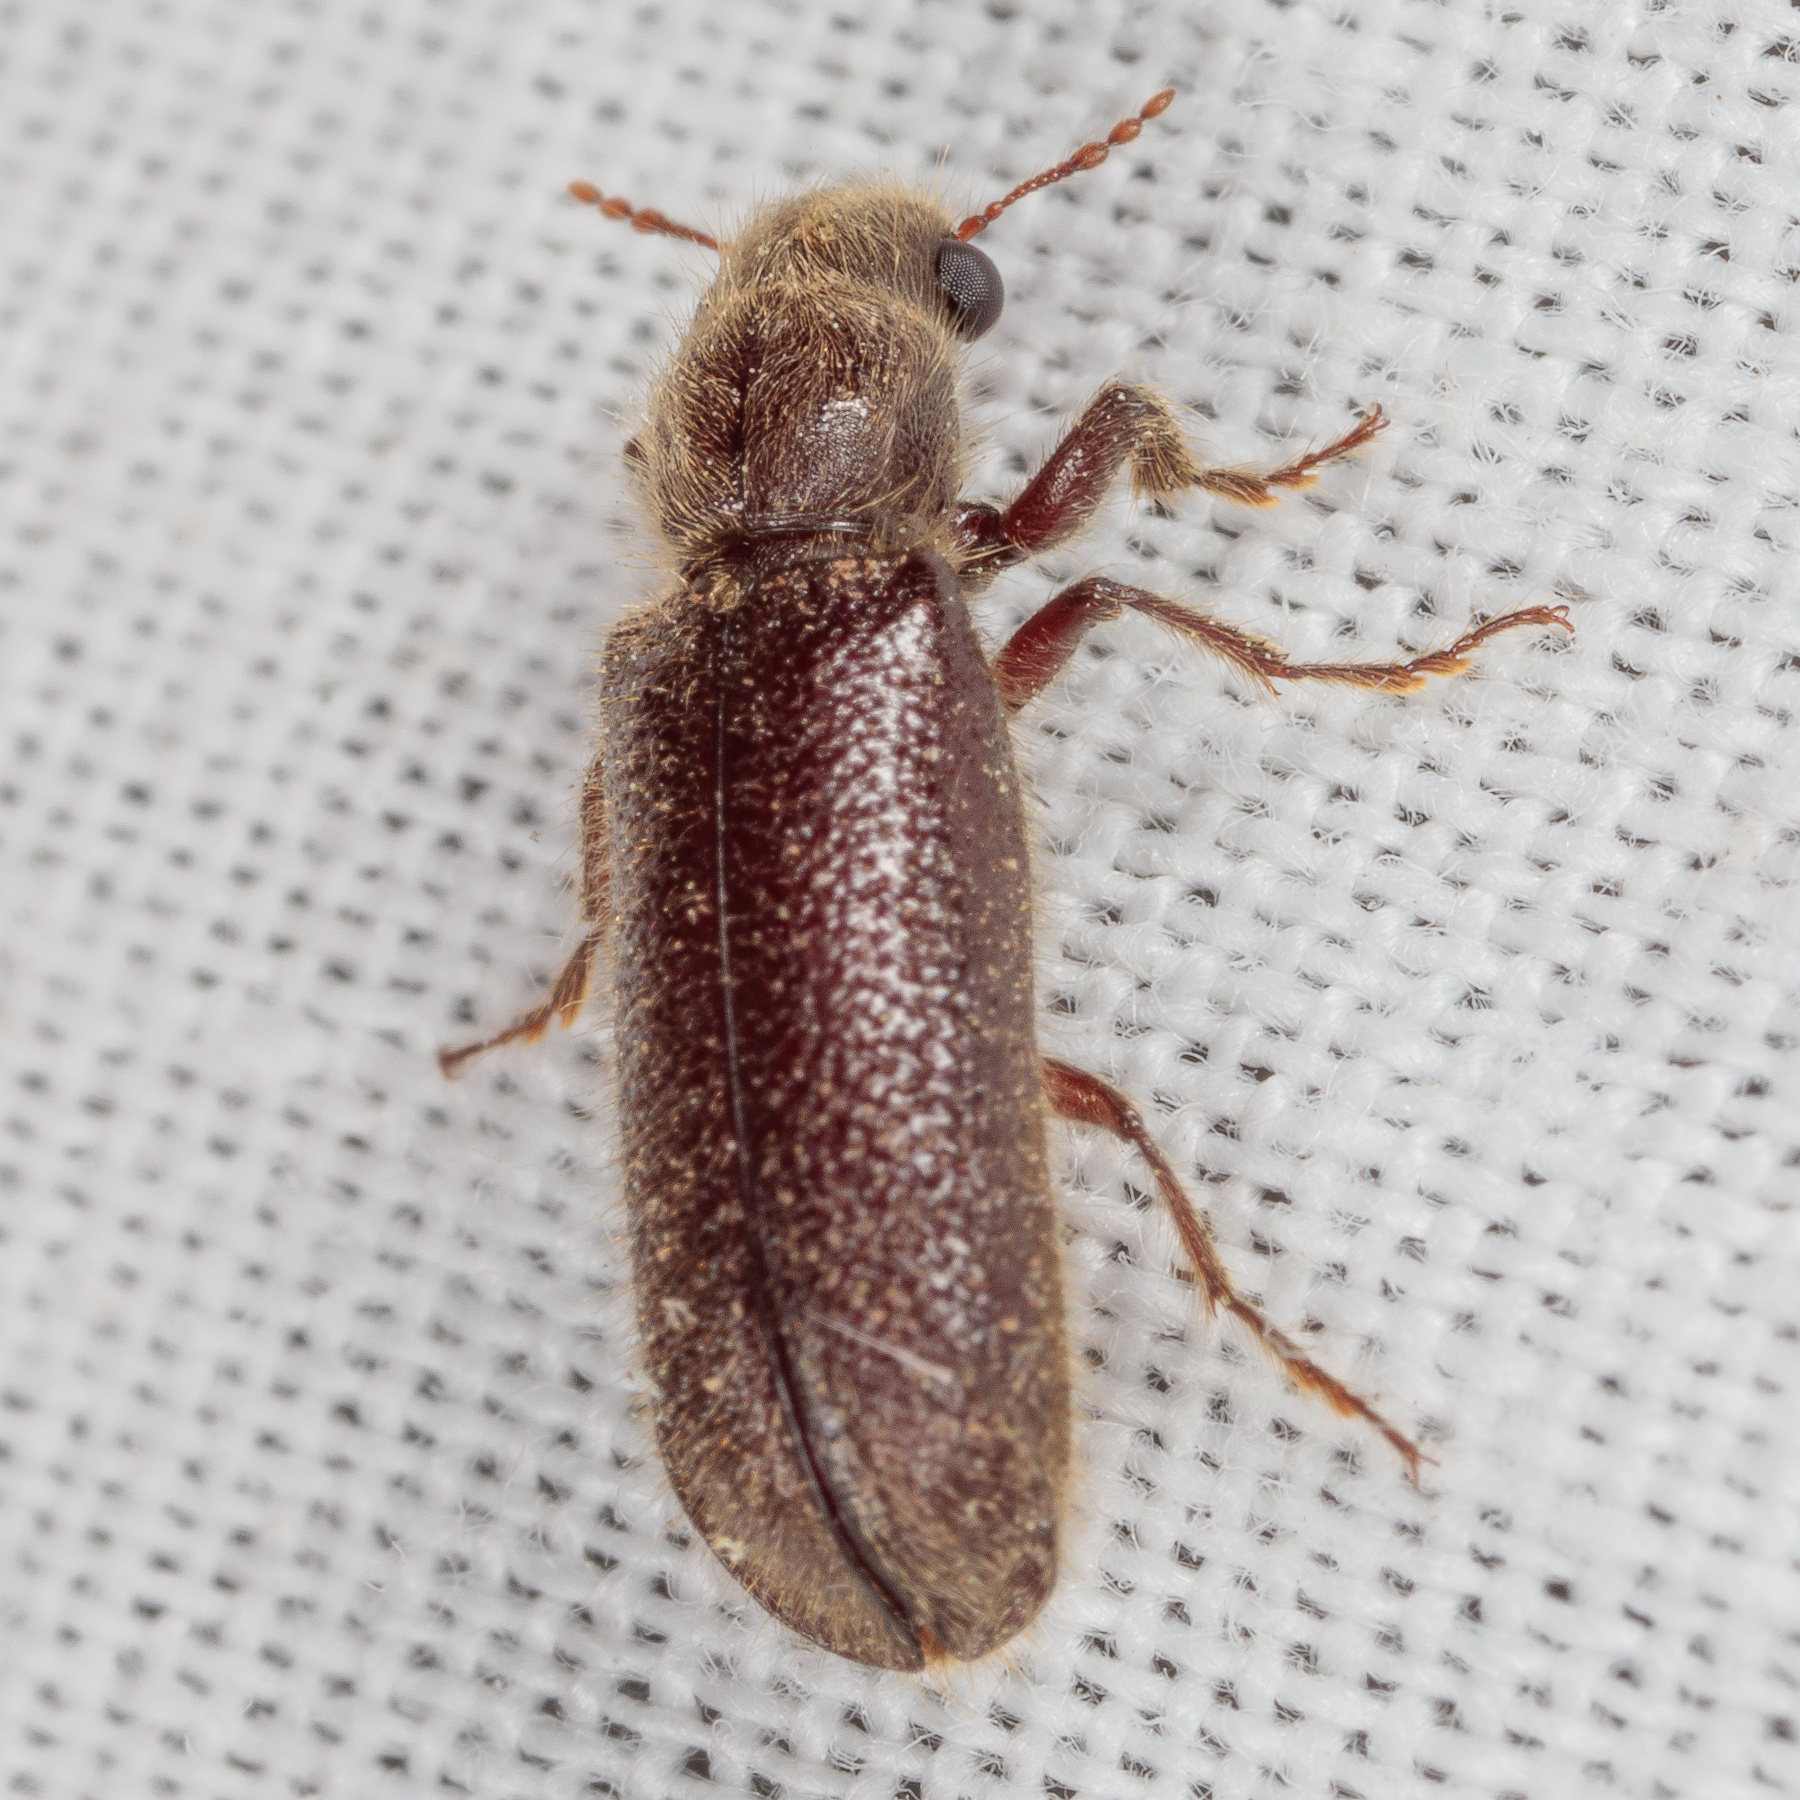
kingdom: Animalia
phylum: Arthropoda
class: Insecta
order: Coleoptera
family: Bostrichidae
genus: Melalgus
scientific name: Melalgus plicatus
